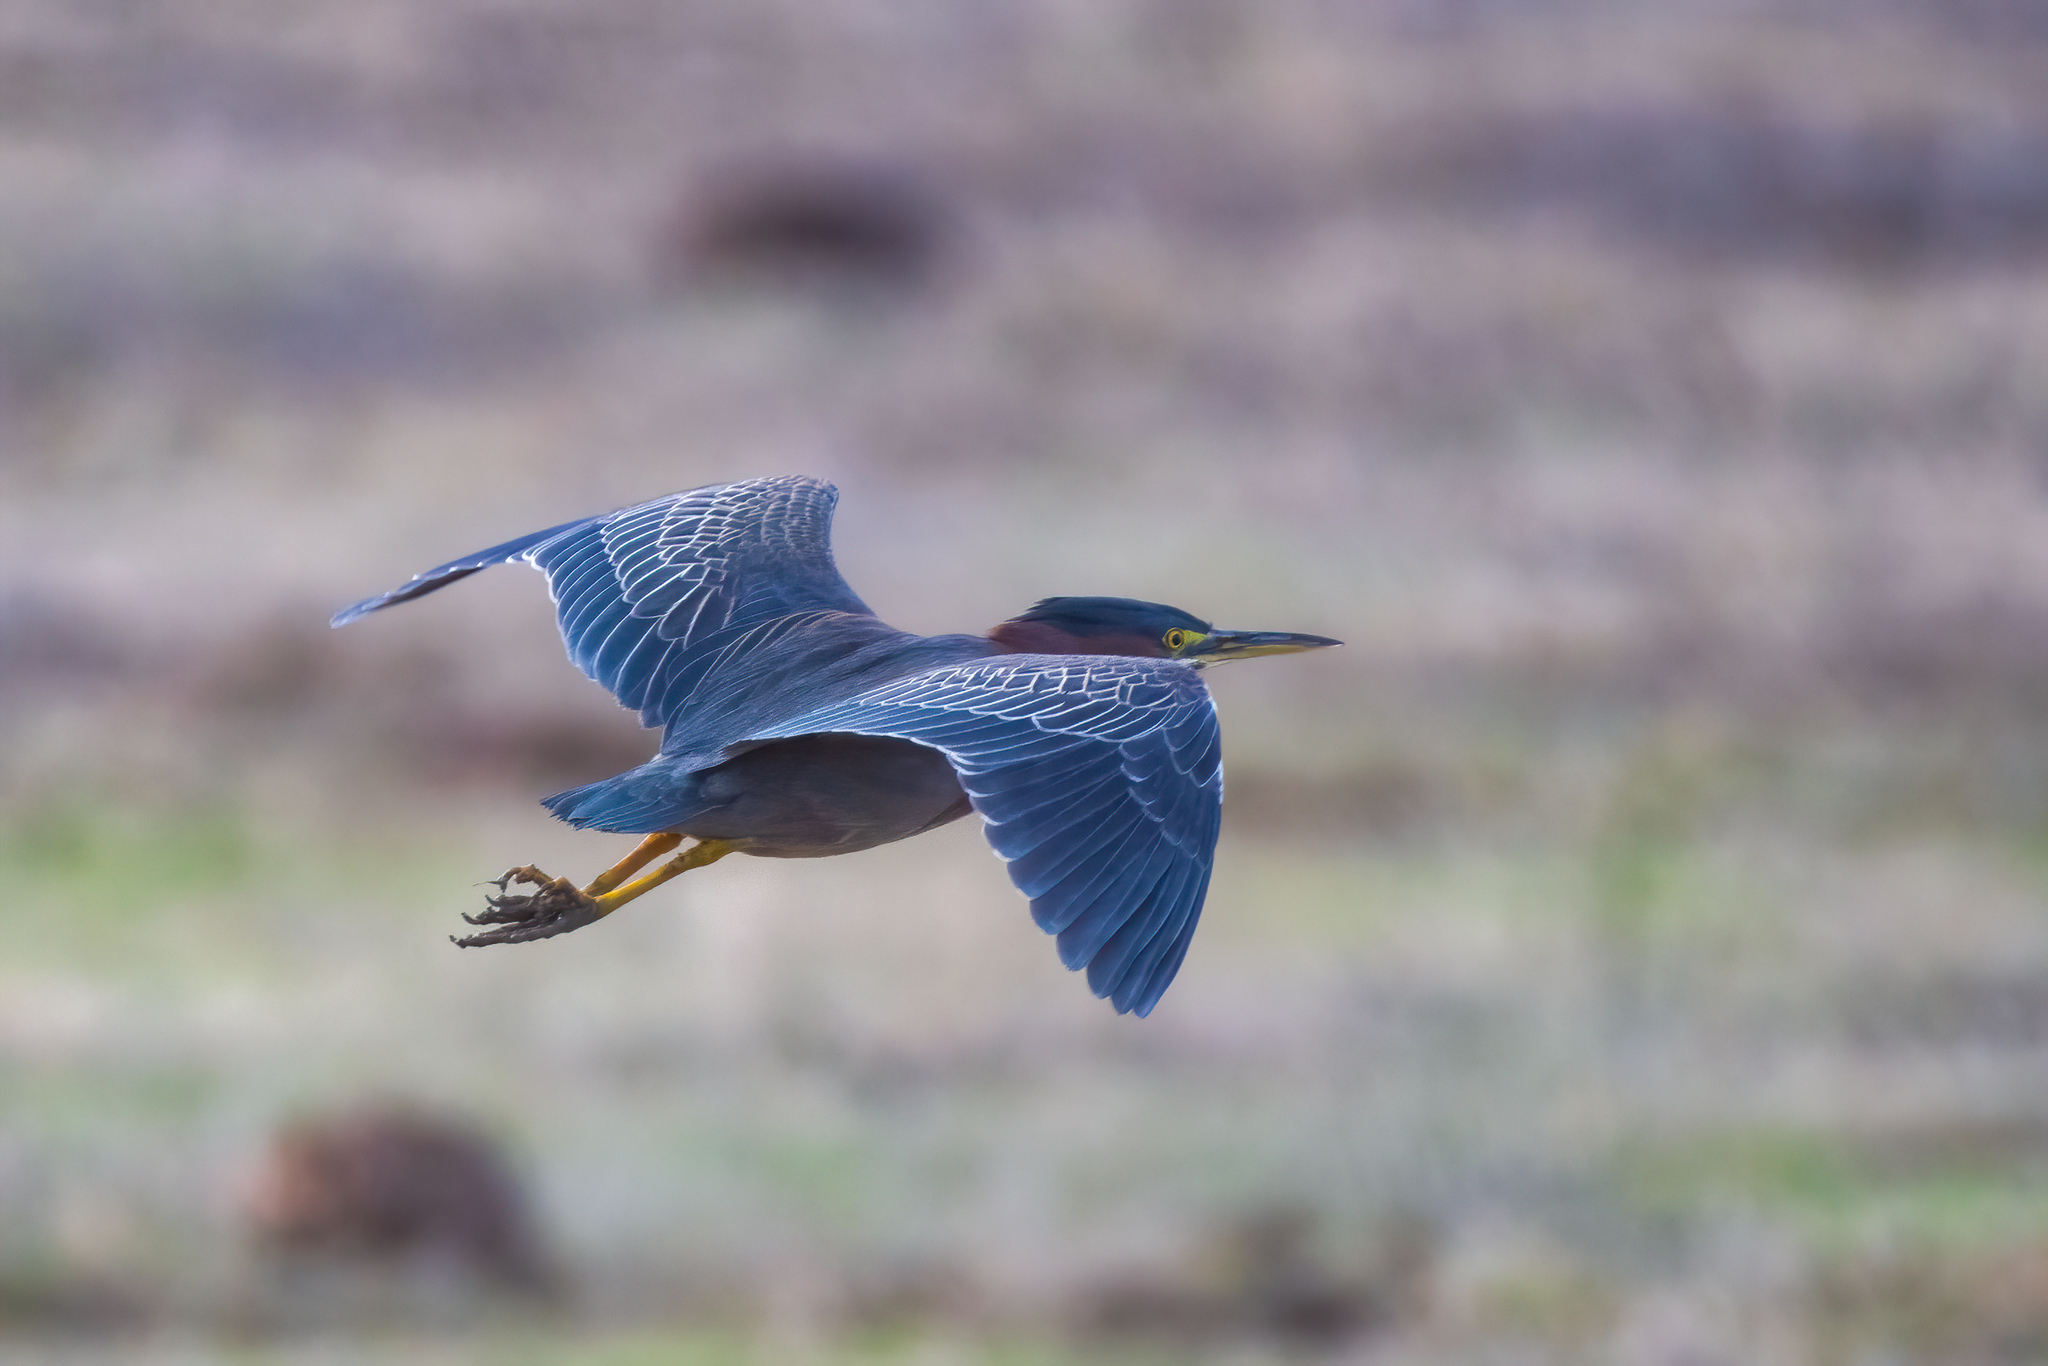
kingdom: Animalia
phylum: Chordata
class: Aves
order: Pelecaniformes
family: Ardeidae
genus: Butorides
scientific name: Butorides virescens
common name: Green heron
